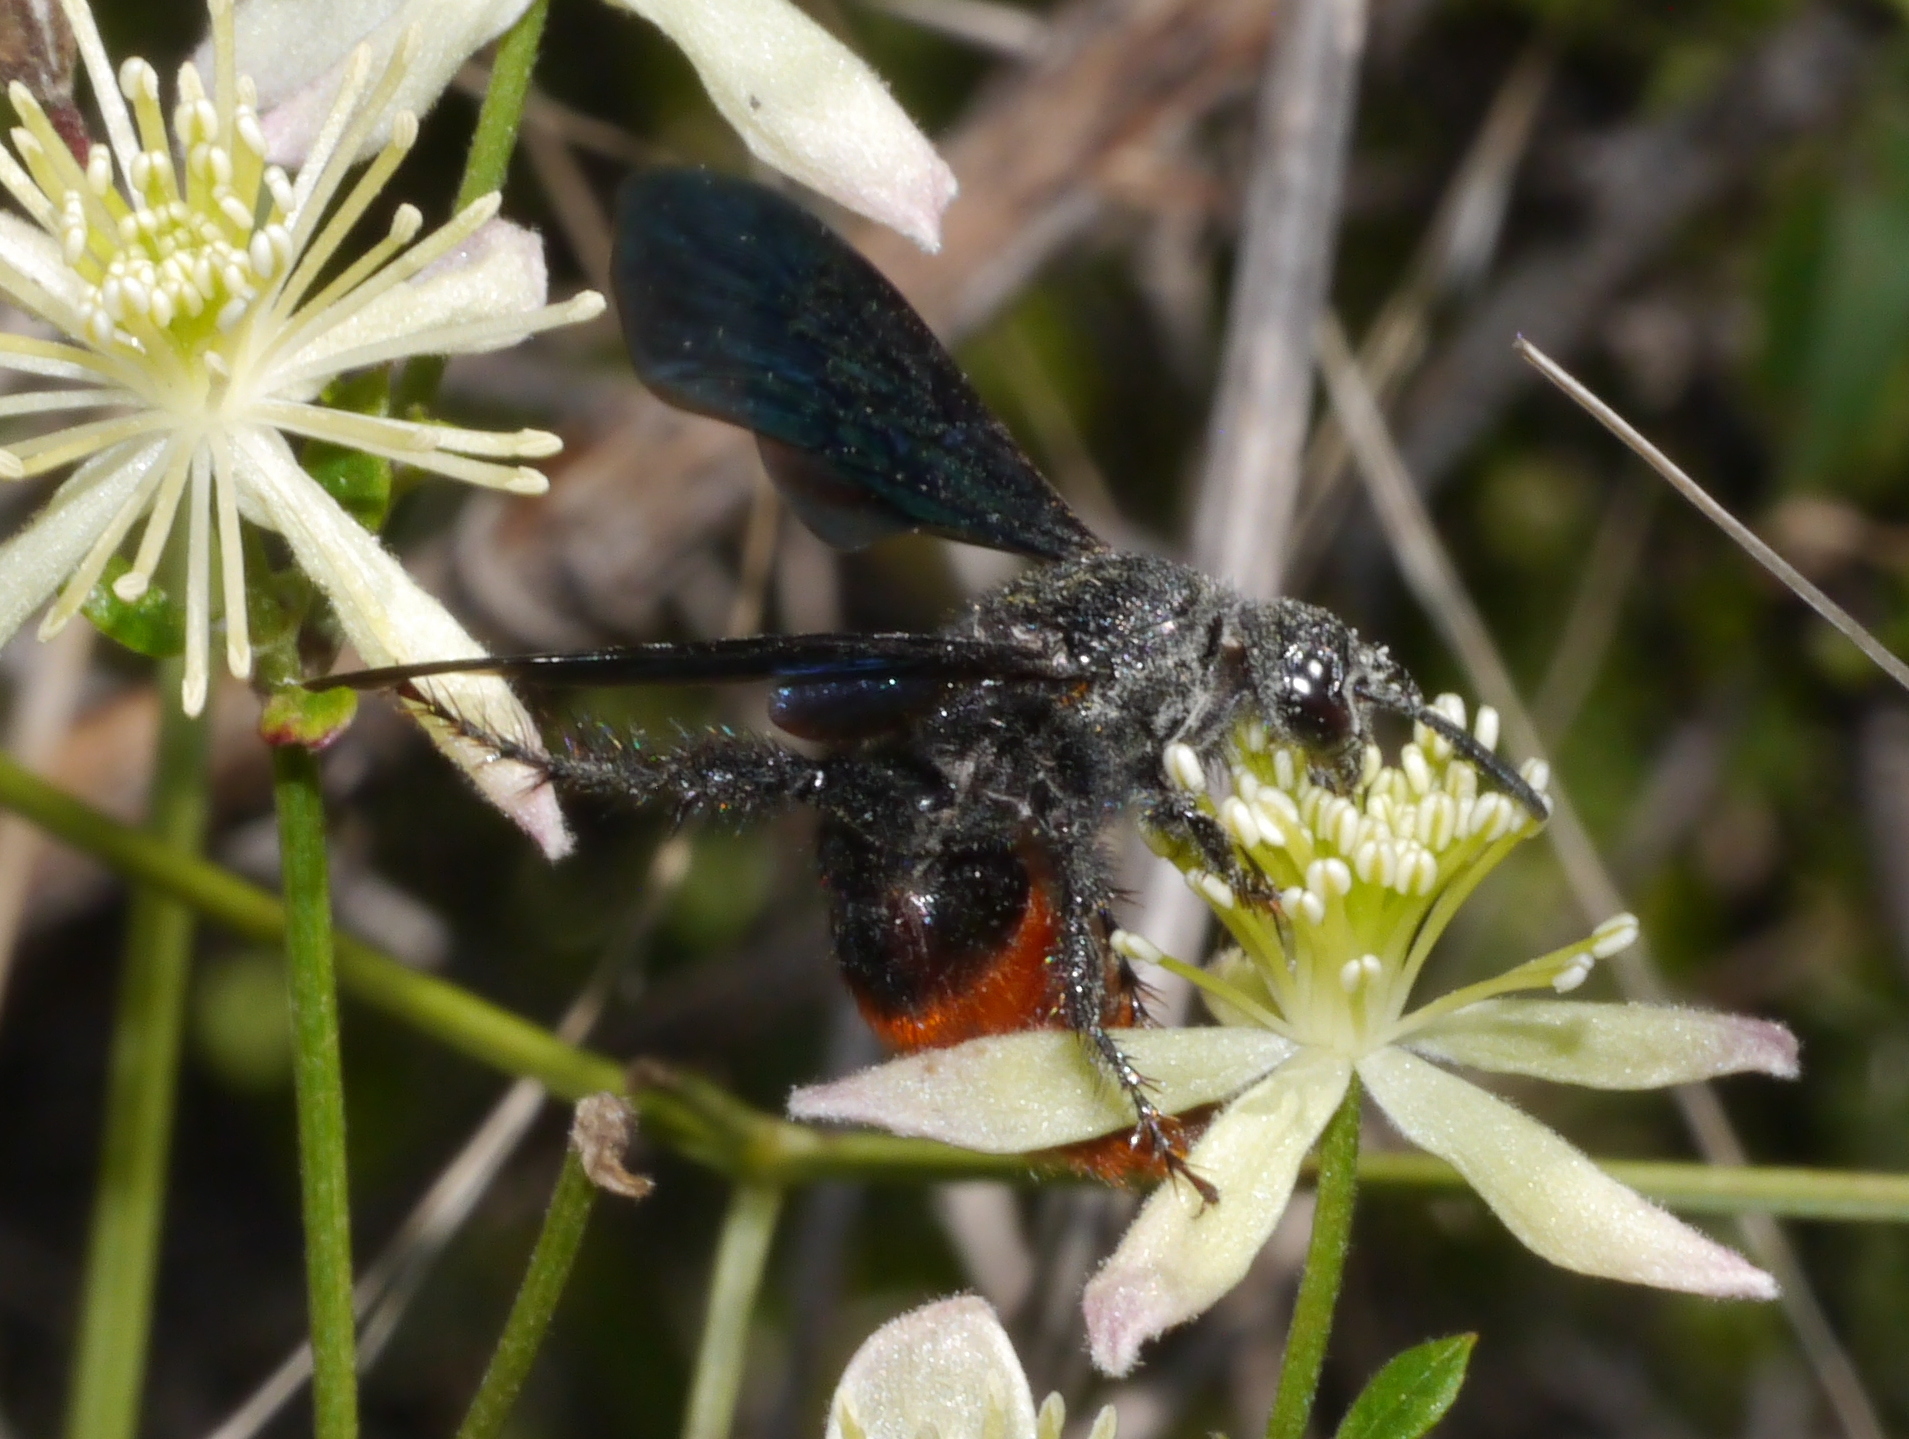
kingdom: Animalia
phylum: Arthropoda
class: Insecta
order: Hymenoptera
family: Scoliidae
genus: Triscolia
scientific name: Triscolia ardens
